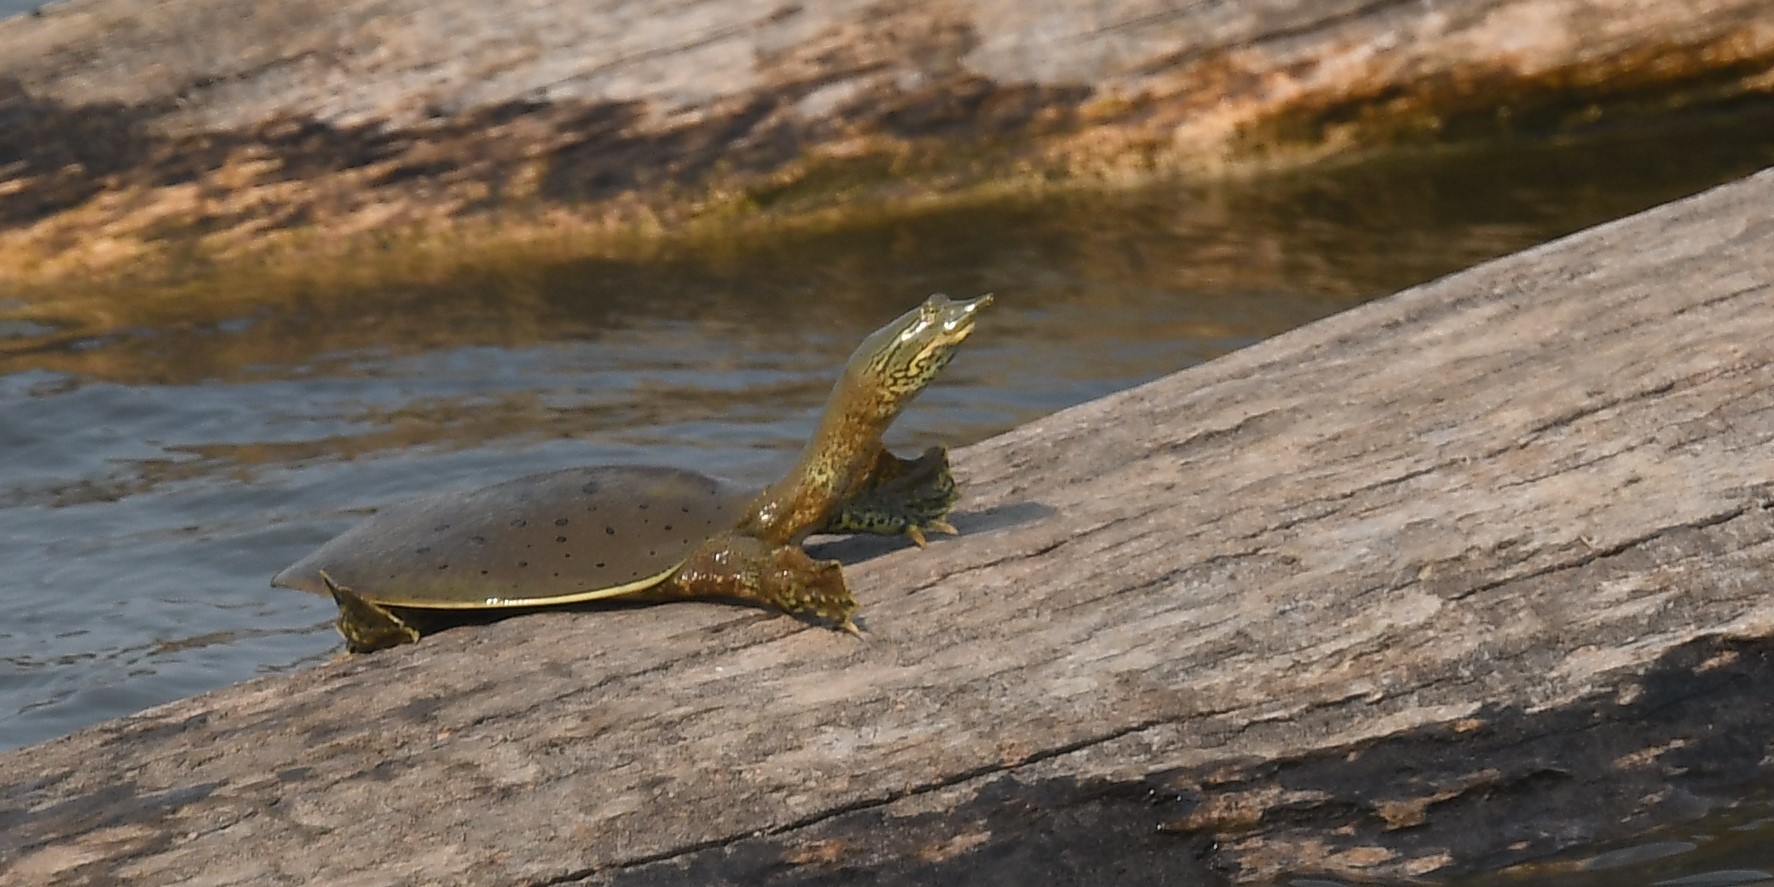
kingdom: Animalia
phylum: Chordata
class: Testudines
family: Trionychidae
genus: Apalone
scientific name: Apalone spinifera
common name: Spiny softshell turtle
